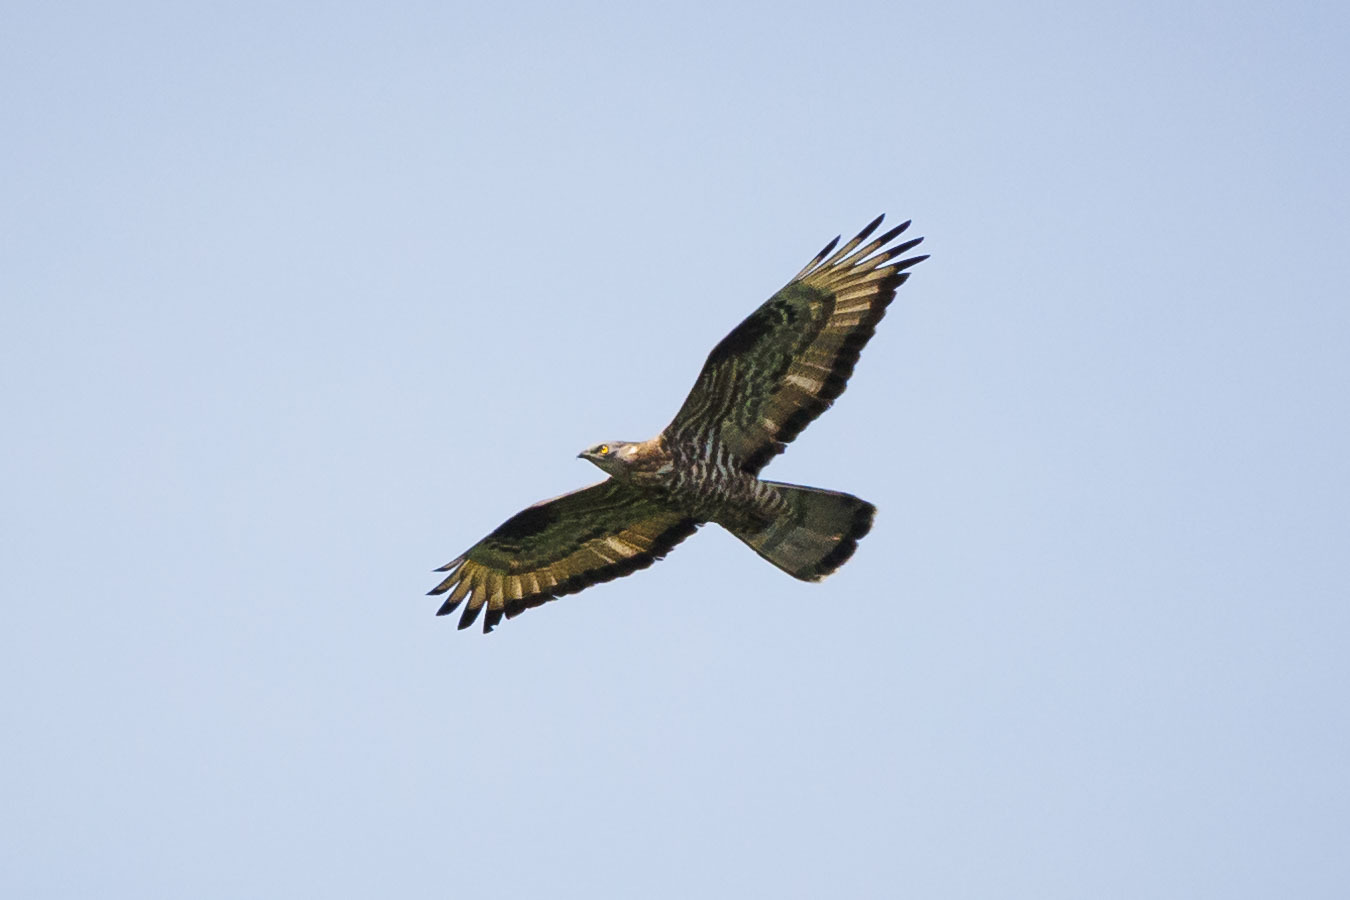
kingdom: Animalia
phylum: Chordata
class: Aves
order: Accipitriformes
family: Accipitridae
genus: Pernis
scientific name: Pernis apivorus
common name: European honey buzzard
